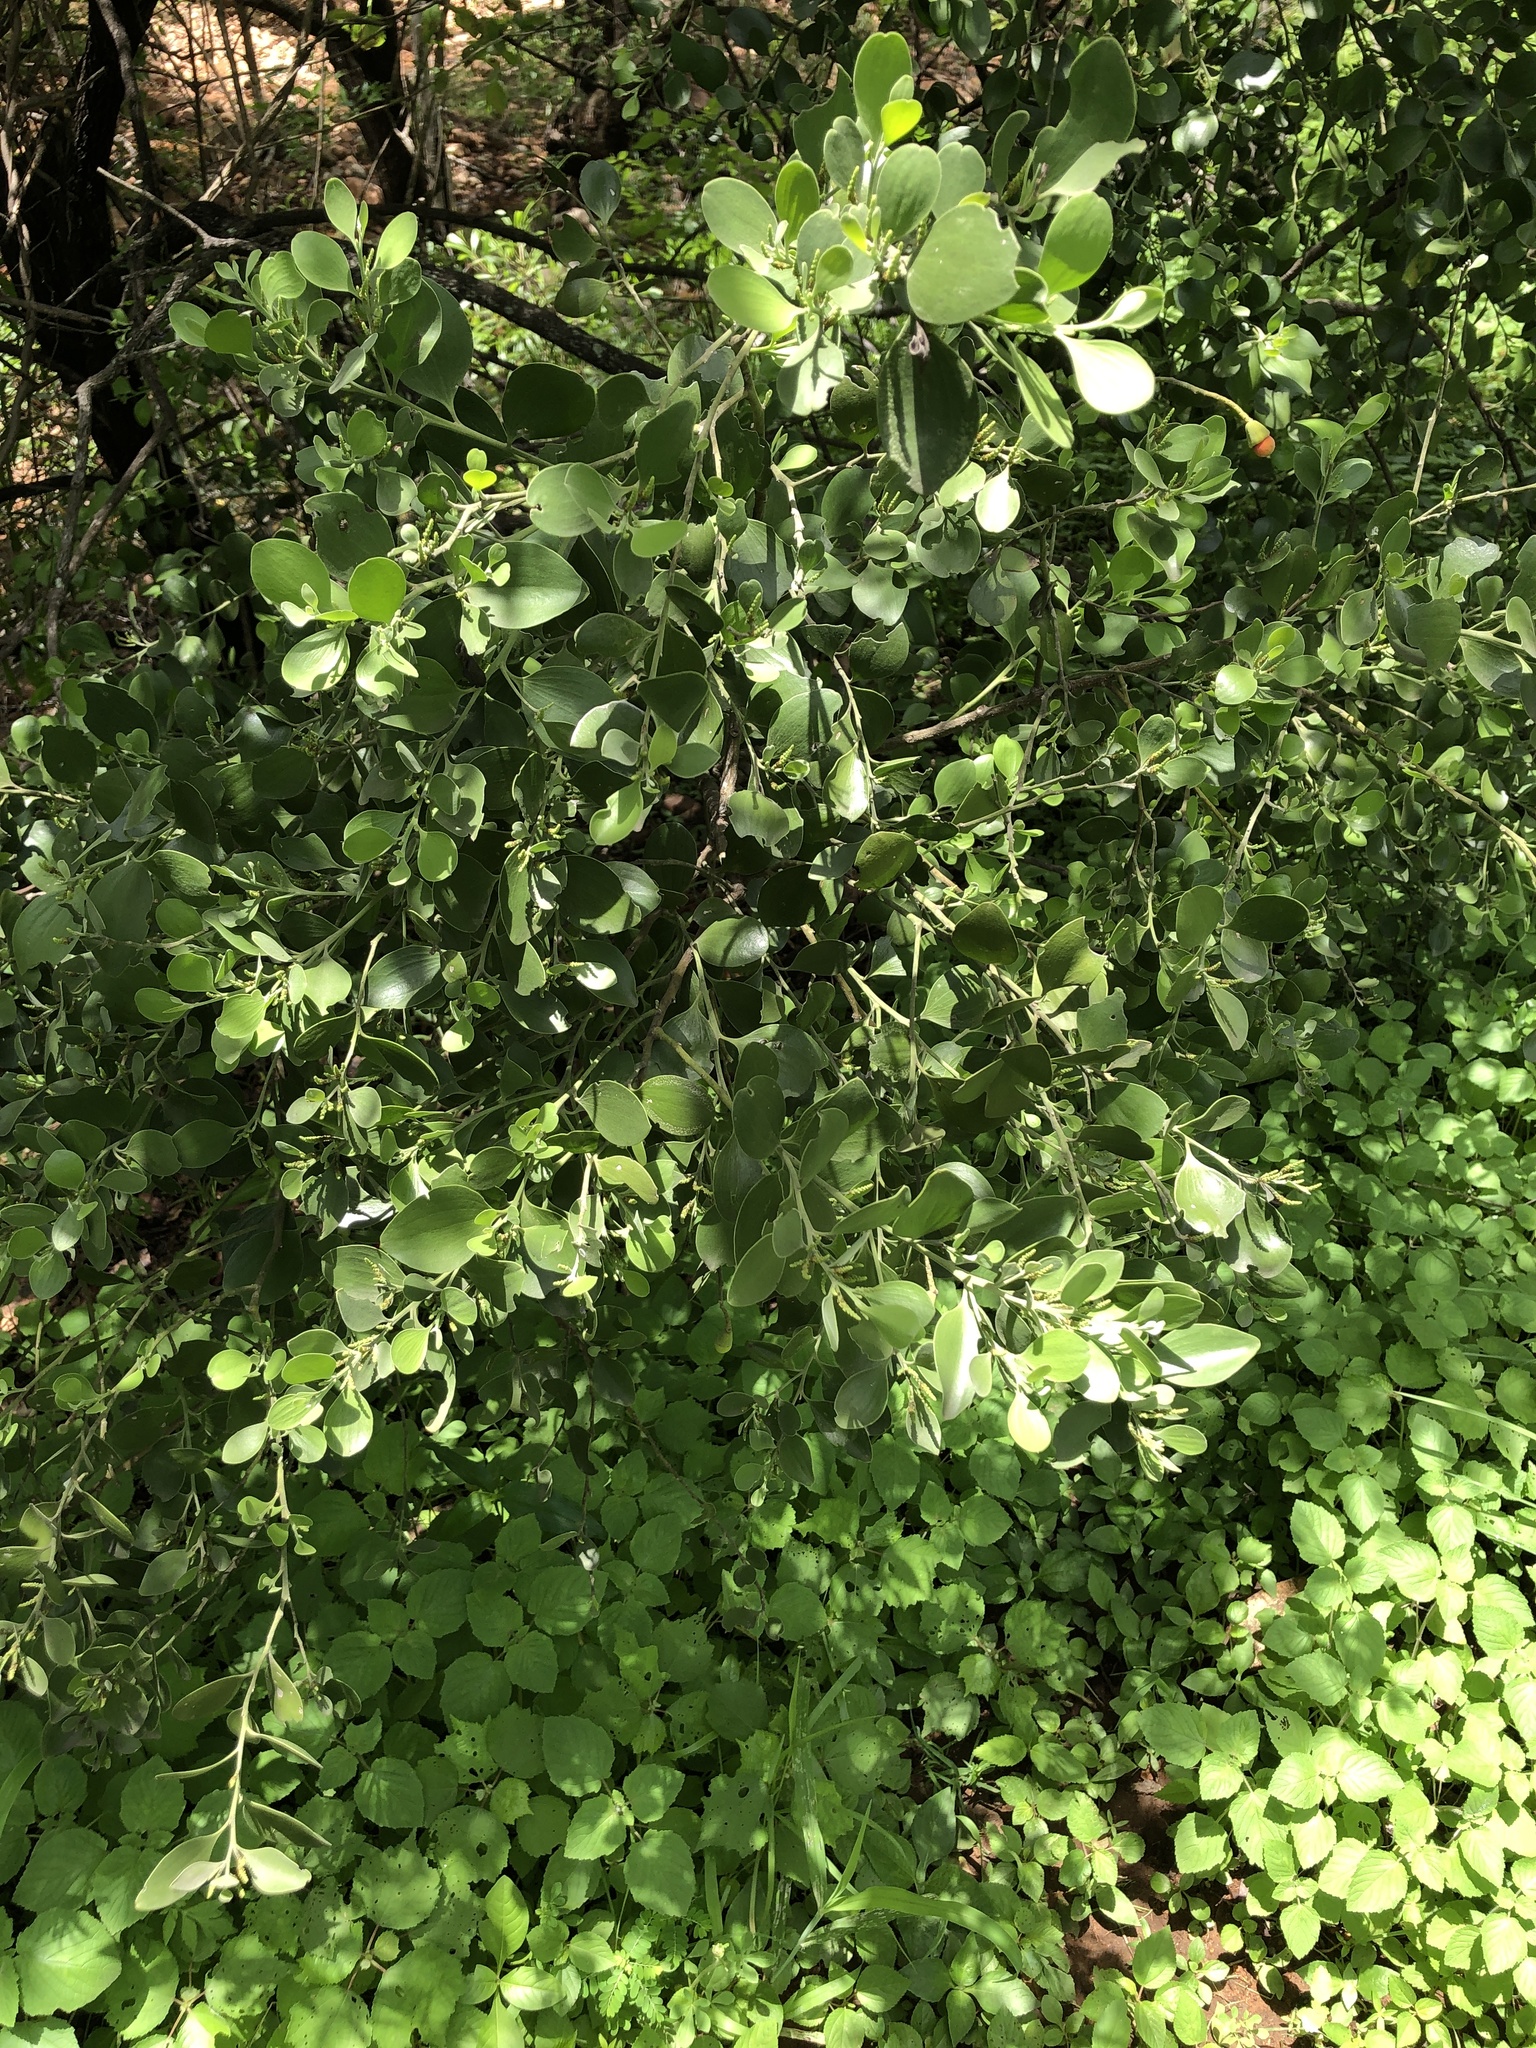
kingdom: Plantae
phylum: Tracheophyta
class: Magnoliopsida
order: Santalales
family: Santalaceae
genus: Exocarpos
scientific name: Exocarpos latifolius
